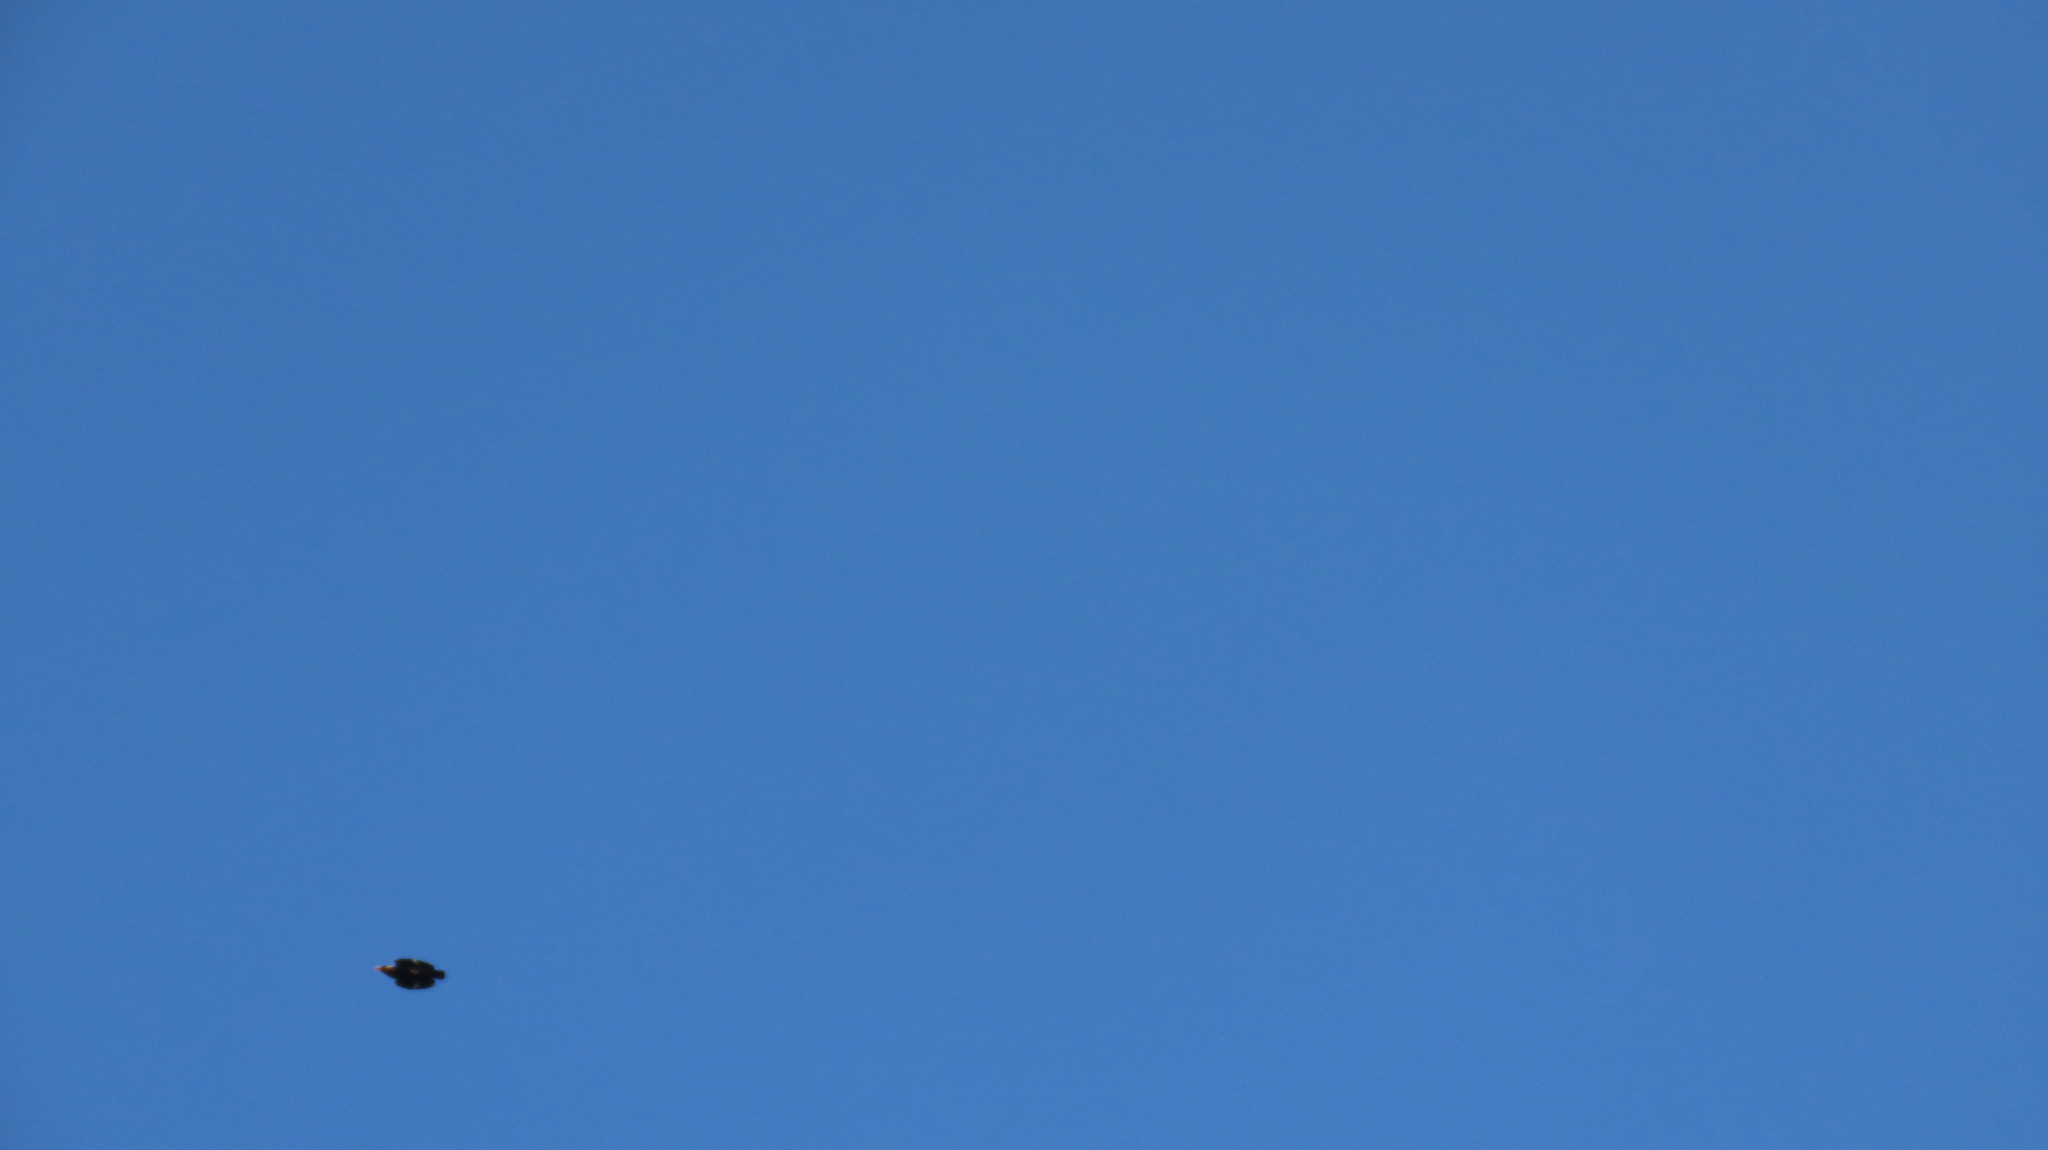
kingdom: Animalia
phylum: Chordata
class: Aves
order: Passeriformes
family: Sturnidae
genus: Gracula
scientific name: Gracula indica
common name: Southern hill myna
